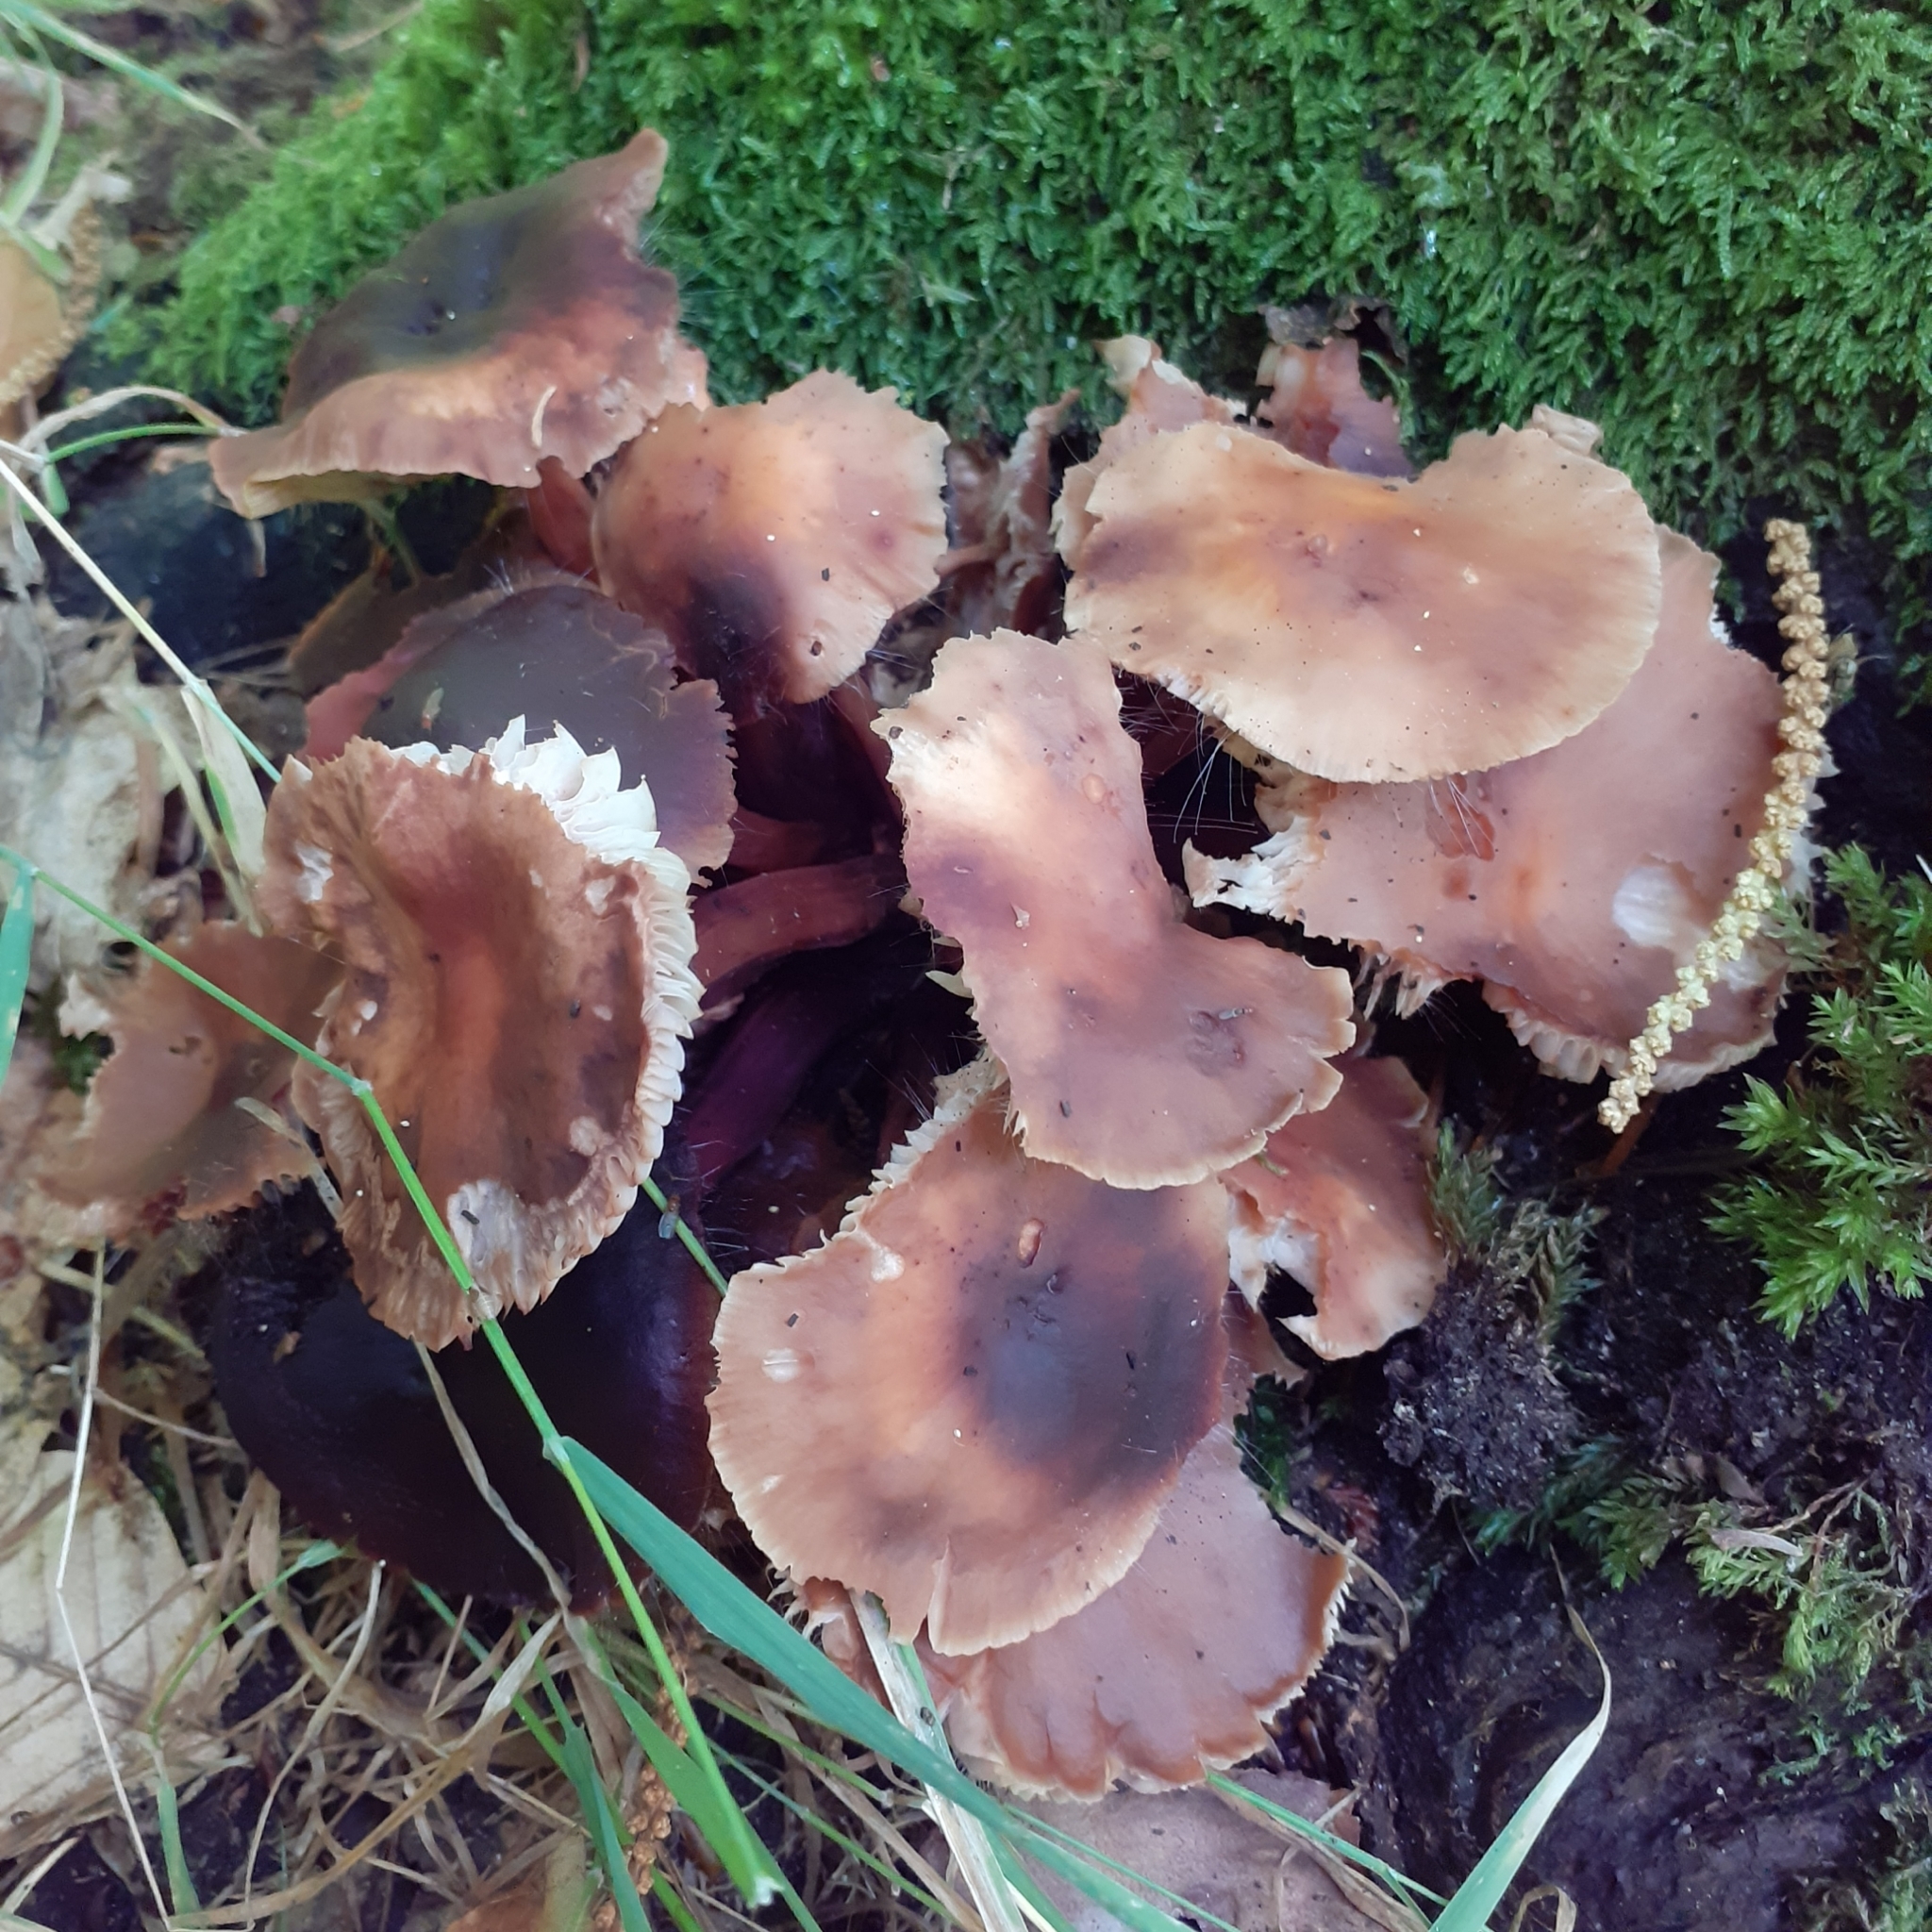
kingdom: Fungi
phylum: Basidiomycota
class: Agaricomycetes
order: Agaricales
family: Omphalotaceae
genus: Gymnopus
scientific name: Gymnopus fusipes
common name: Spindle shank
